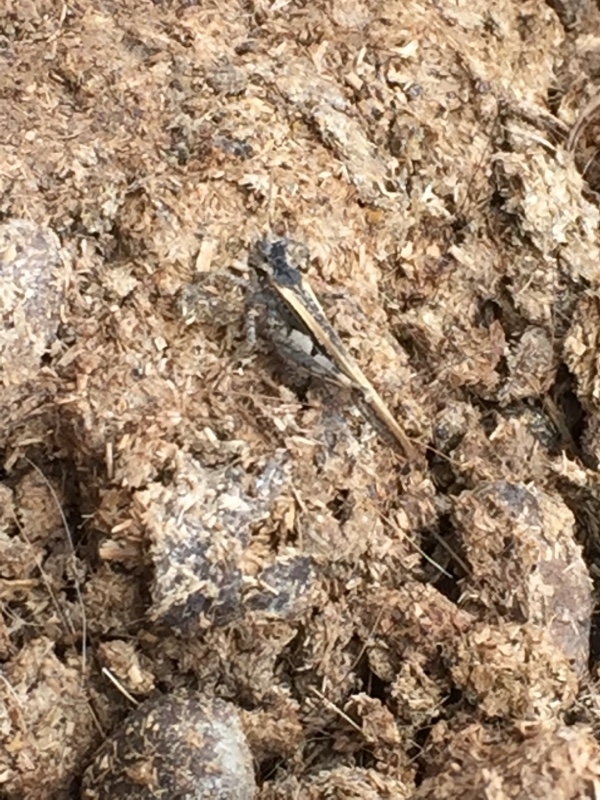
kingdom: Animalia
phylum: Arthropoda
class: Insecta
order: Orthoptera
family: Acrididae
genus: Acrotylus
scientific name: Acrotylus insubricus
